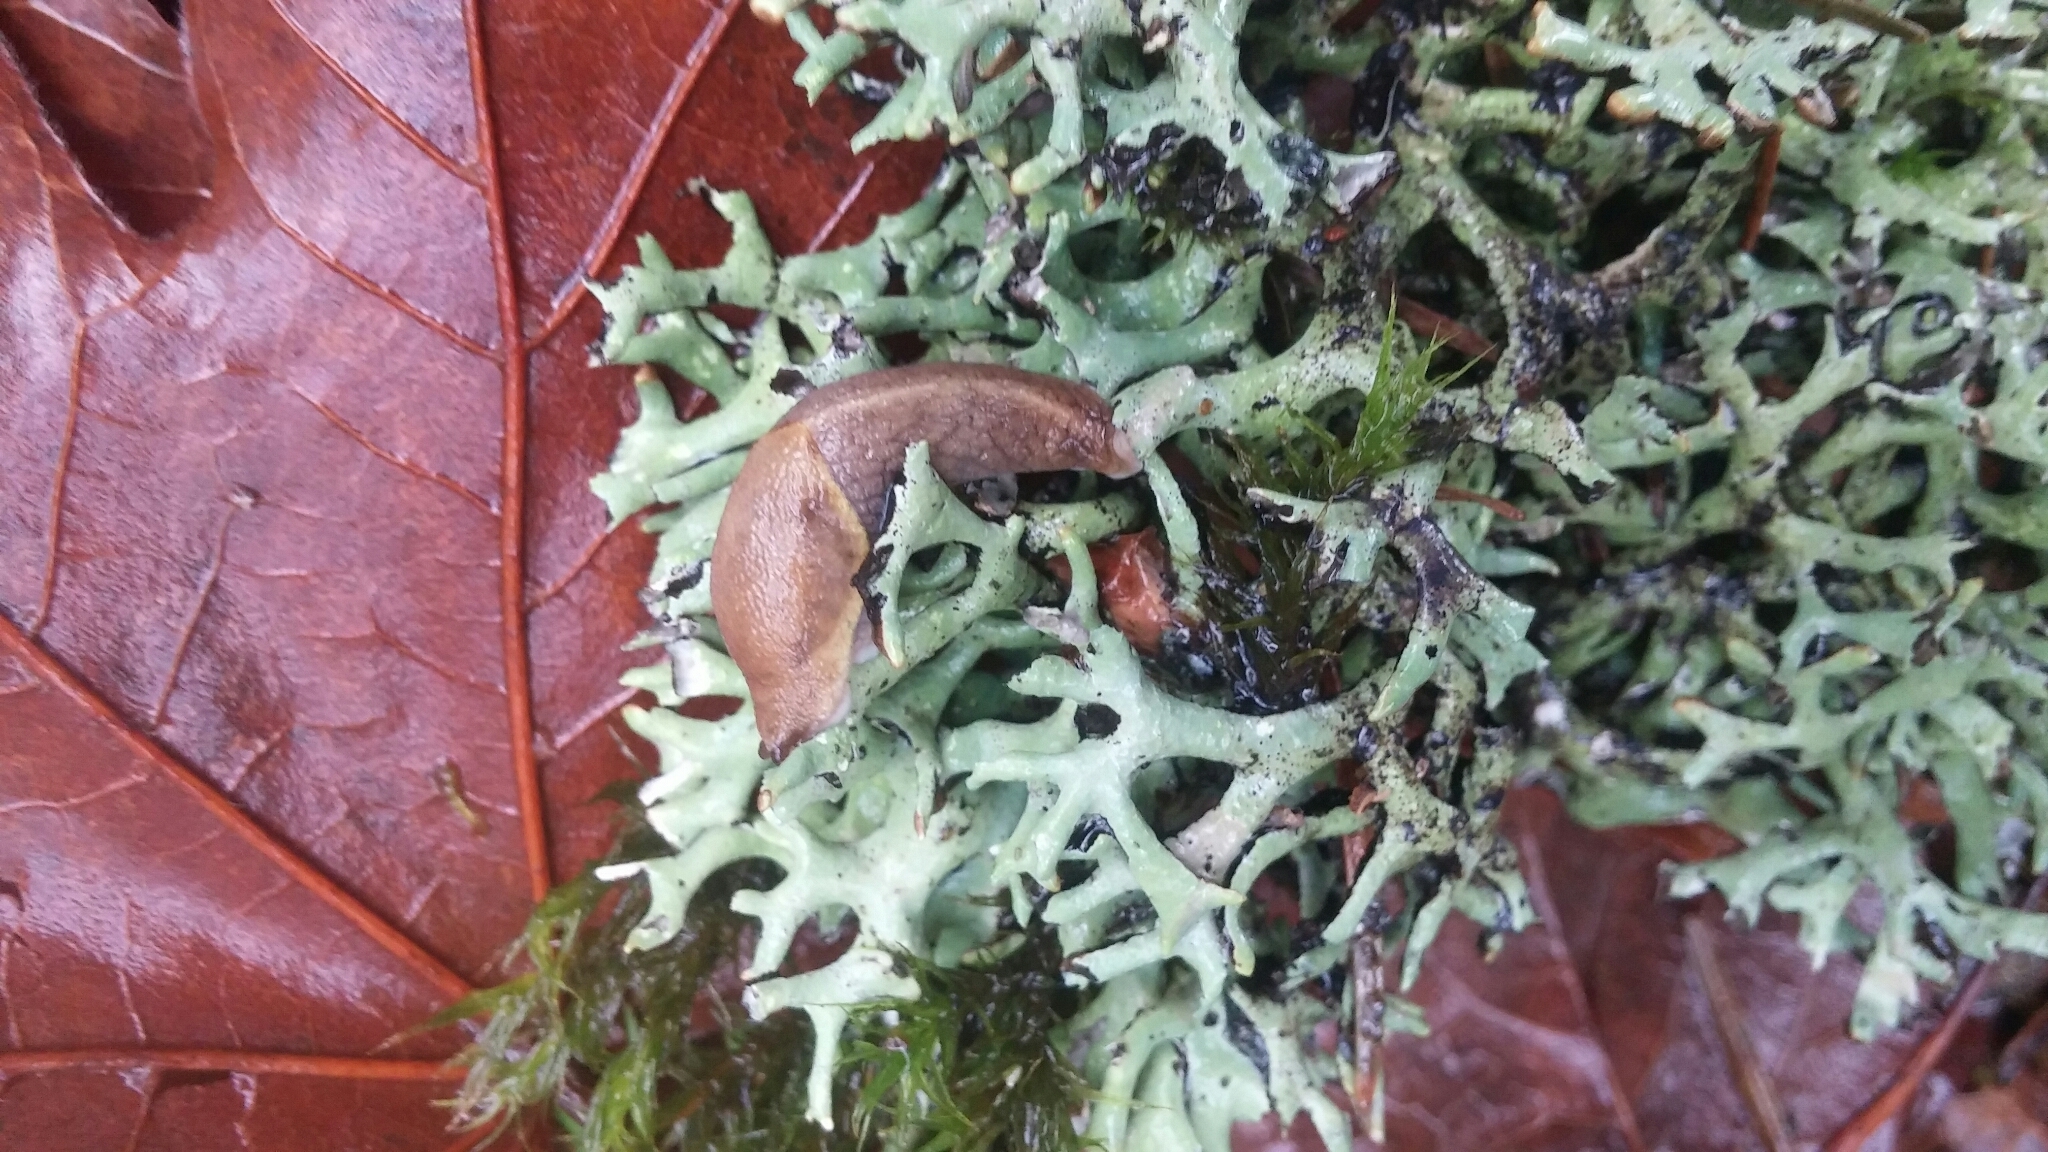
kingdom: Animalia
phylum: Mollusca
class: Gastropoda
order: Stylommatophora
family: Ariolimacidae
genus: Prophysaon
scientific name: Prophysaon andersonii
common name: Reticulate taildropper
